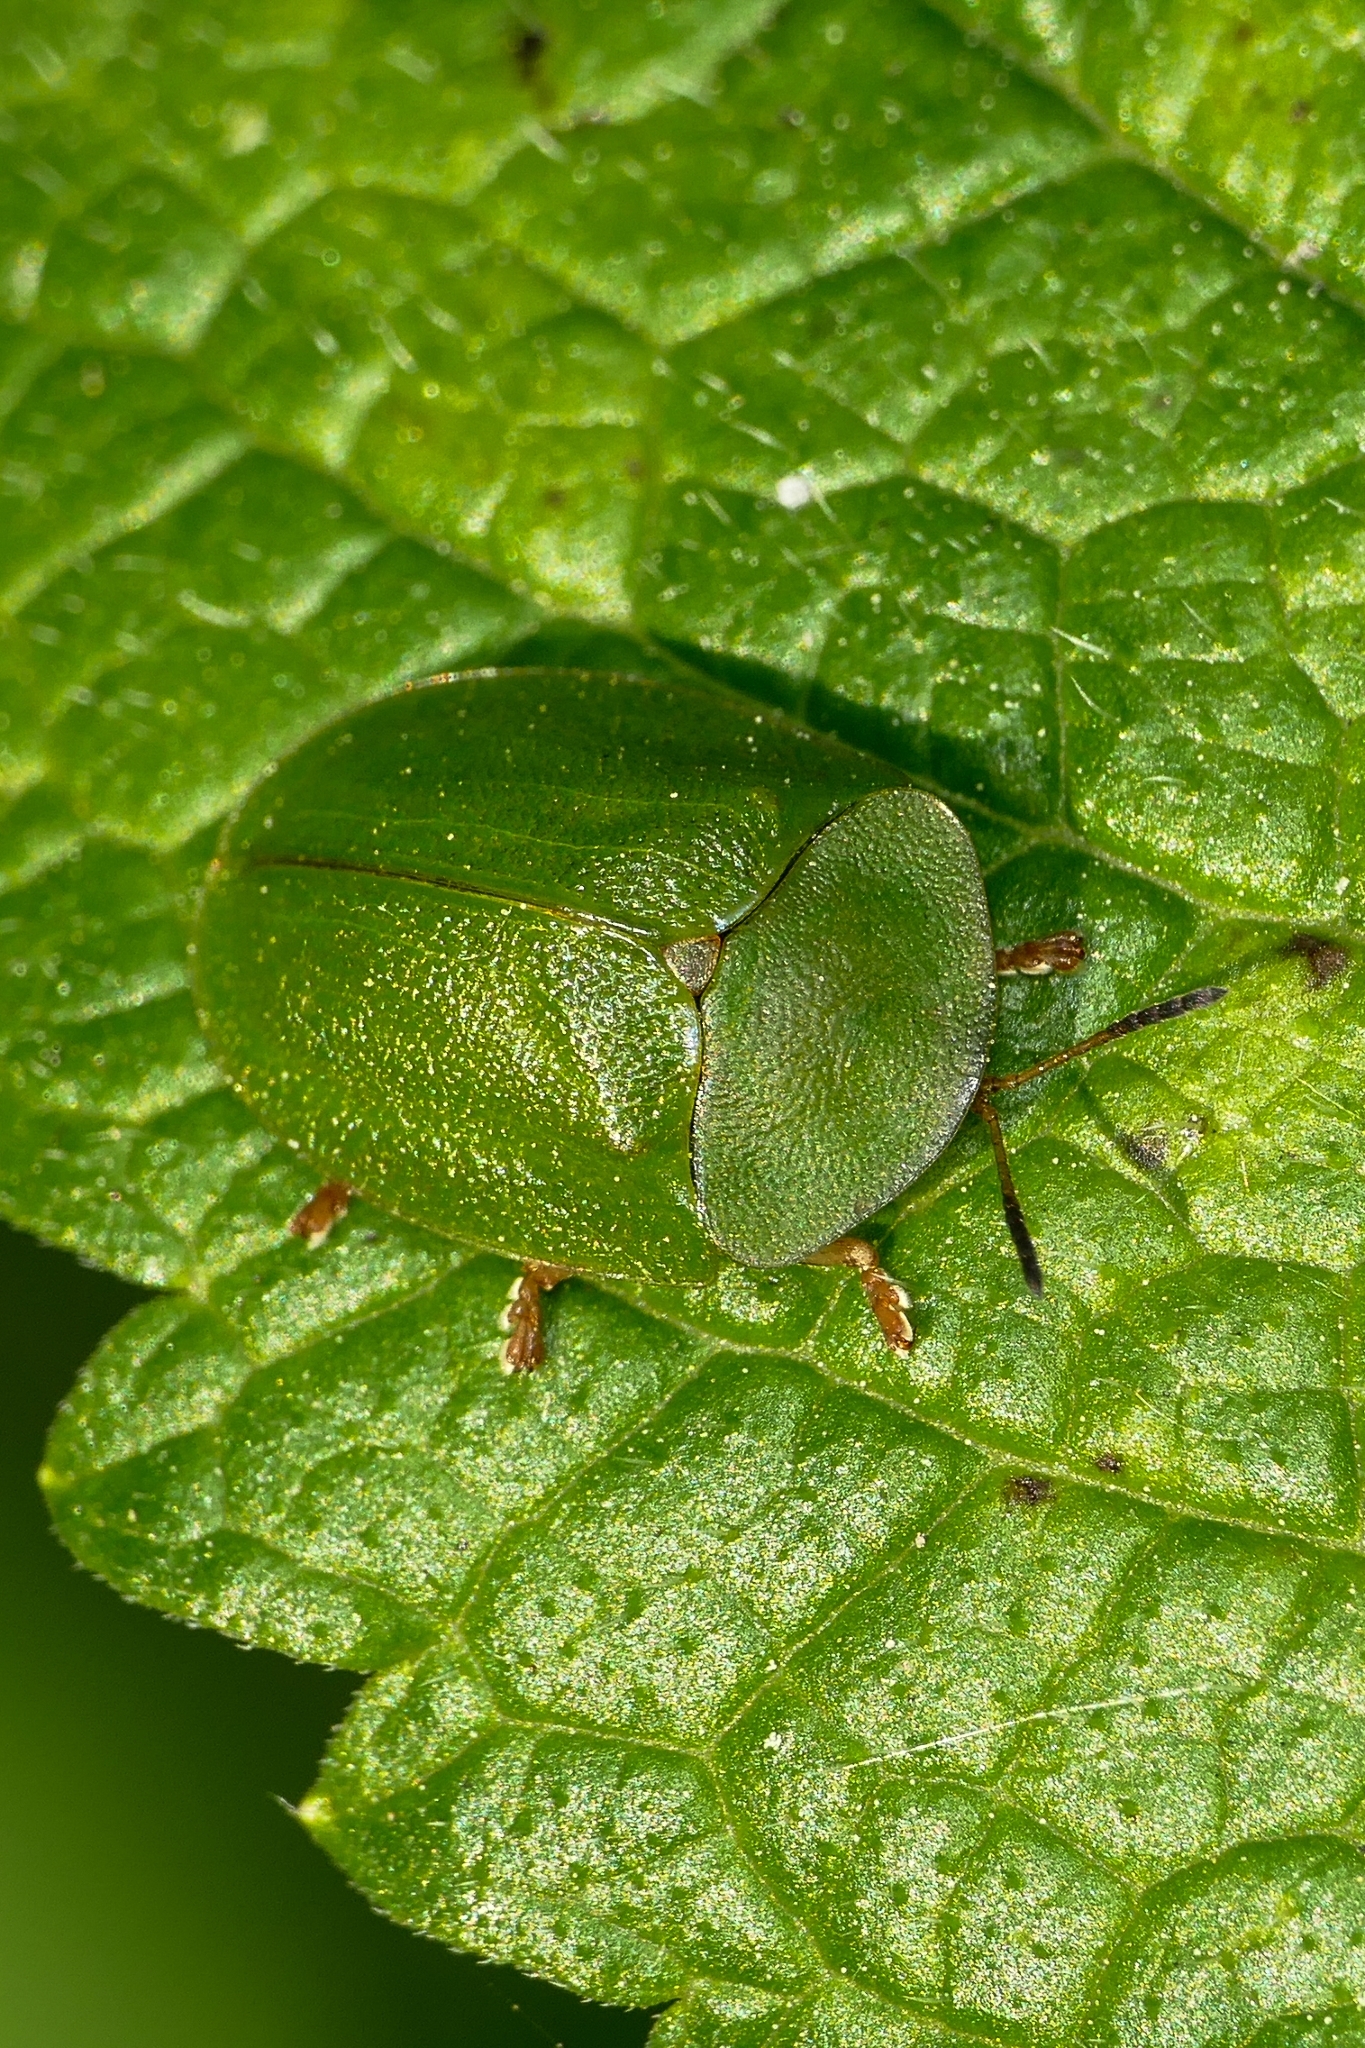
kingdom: Animalia
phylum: Arthropoda
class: Insecta
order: Coleoptera
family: Chrysomelidae
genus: Cassida
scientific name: Cassida viridis
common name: Green tortoise beetle
